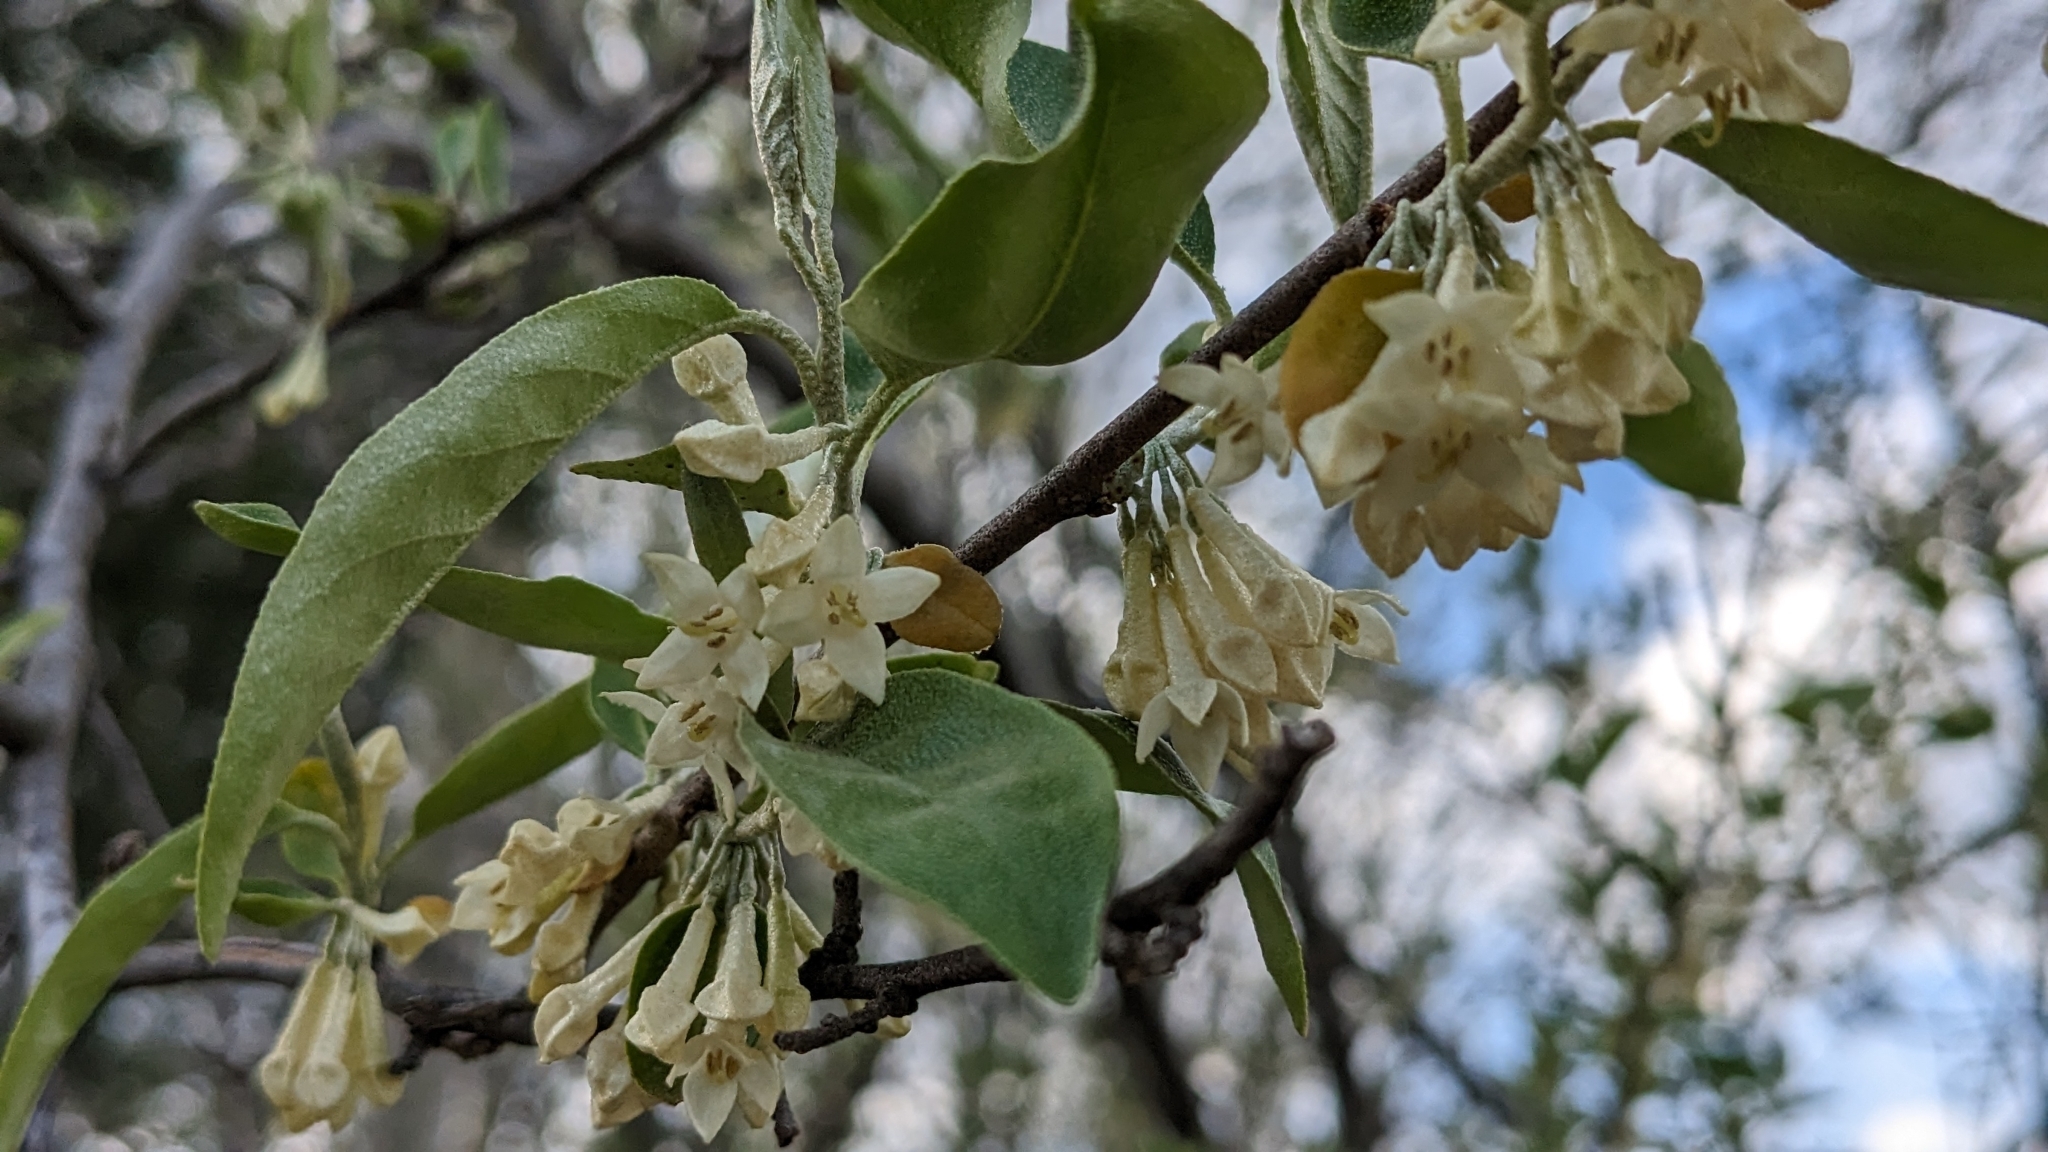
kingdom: Plantae
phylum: Tracheophyta
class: Magnoliopsida
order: Rosales
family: Elaeagnaceae
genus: Elaeagnus
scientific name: Elaeagnus umbellata
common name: Autumn olive
